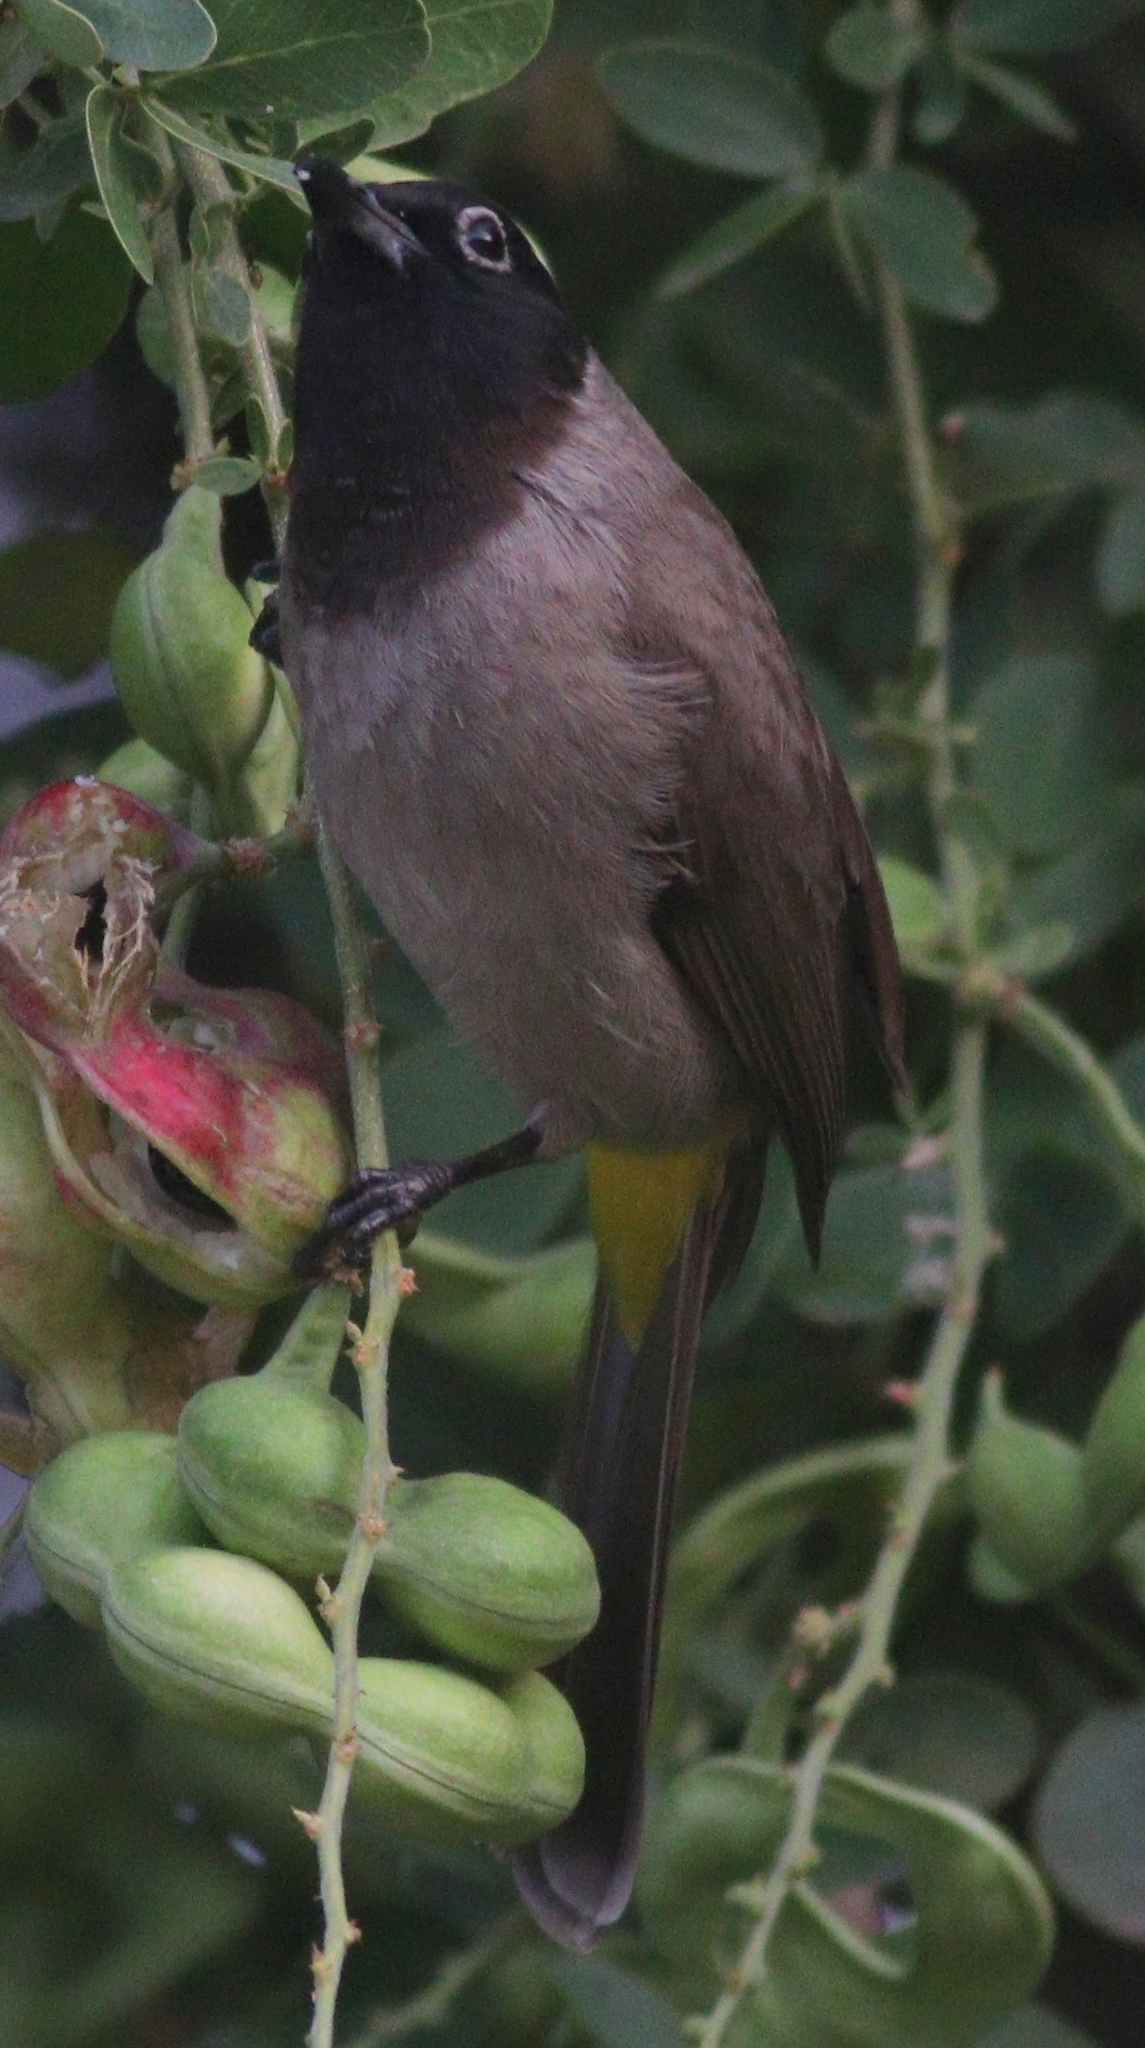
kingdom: Animalia
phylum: Chordata
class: Aves
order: Passeriformes
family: Pycnonotidae
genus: Pycnonotus
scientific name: Pycnonotus xanthopygos
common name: White-spectacled bulbul
